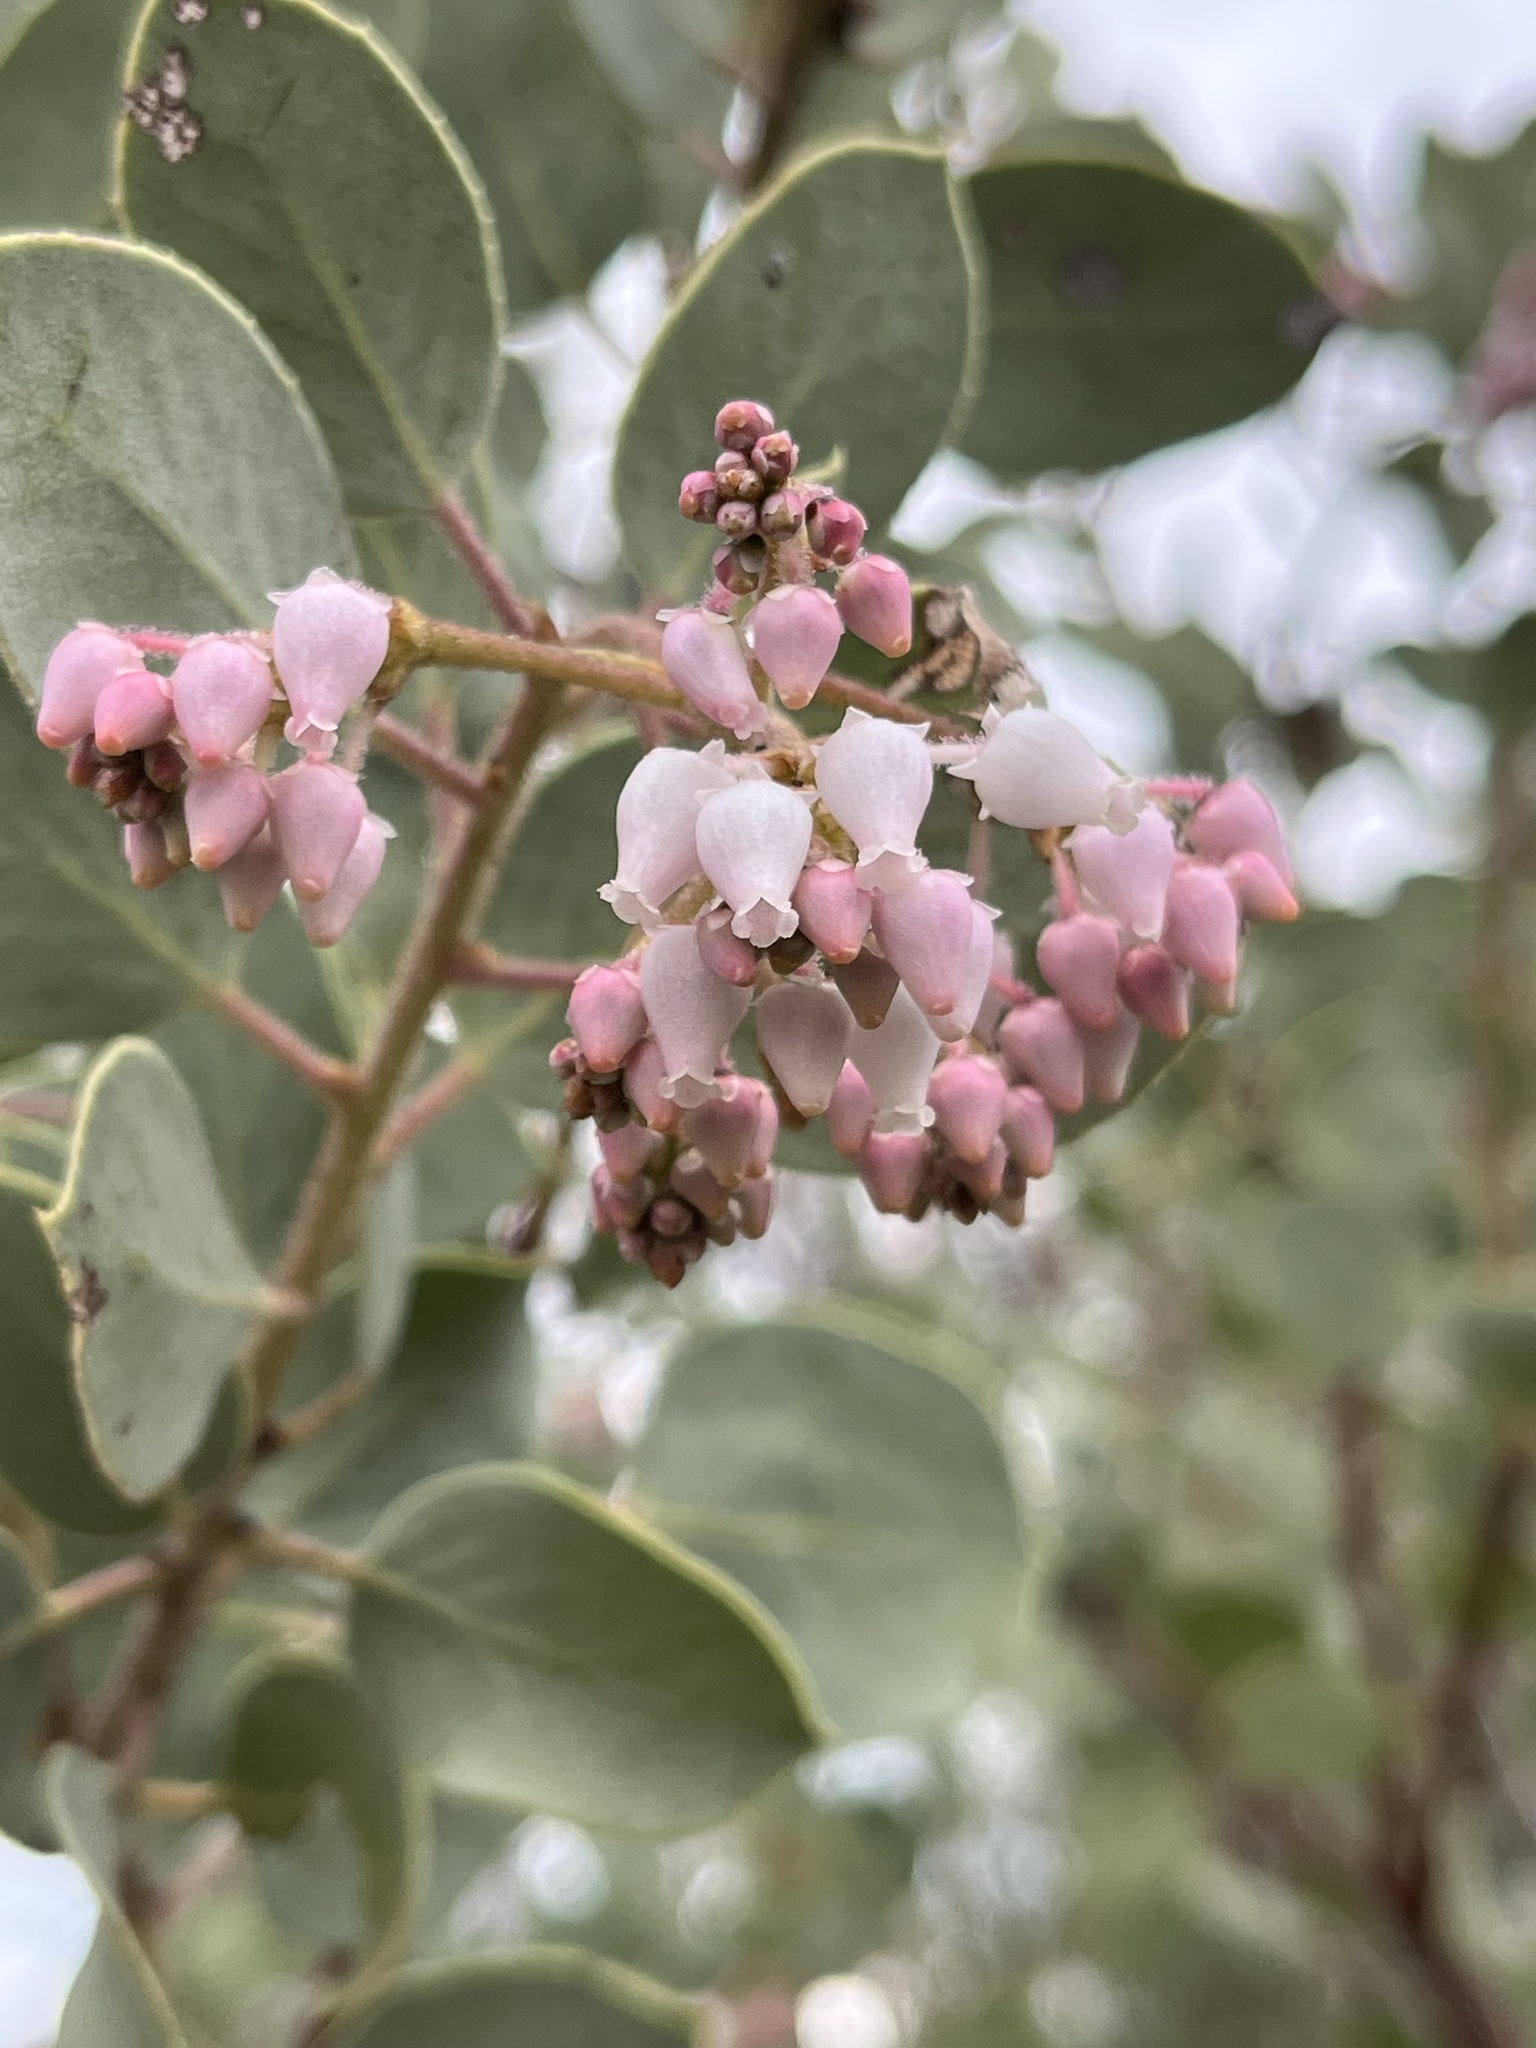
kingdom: Plantae
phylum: Tracheophyta
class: Magnoliopsida
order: Ericales
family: Ericaceae
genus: Arctostaphylos
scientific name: Arctostaphylos viscida
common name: White-leaf manzanita
